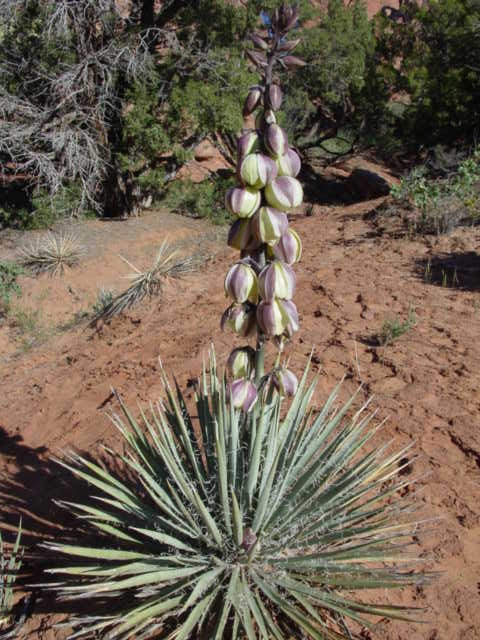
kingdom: Plantae
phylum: Tracheophyta
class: Liliopsida
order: Asparagales
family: Asparagaceae
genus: Yucca
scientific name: Yucca harrimaniae
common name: Harriman's yucca
